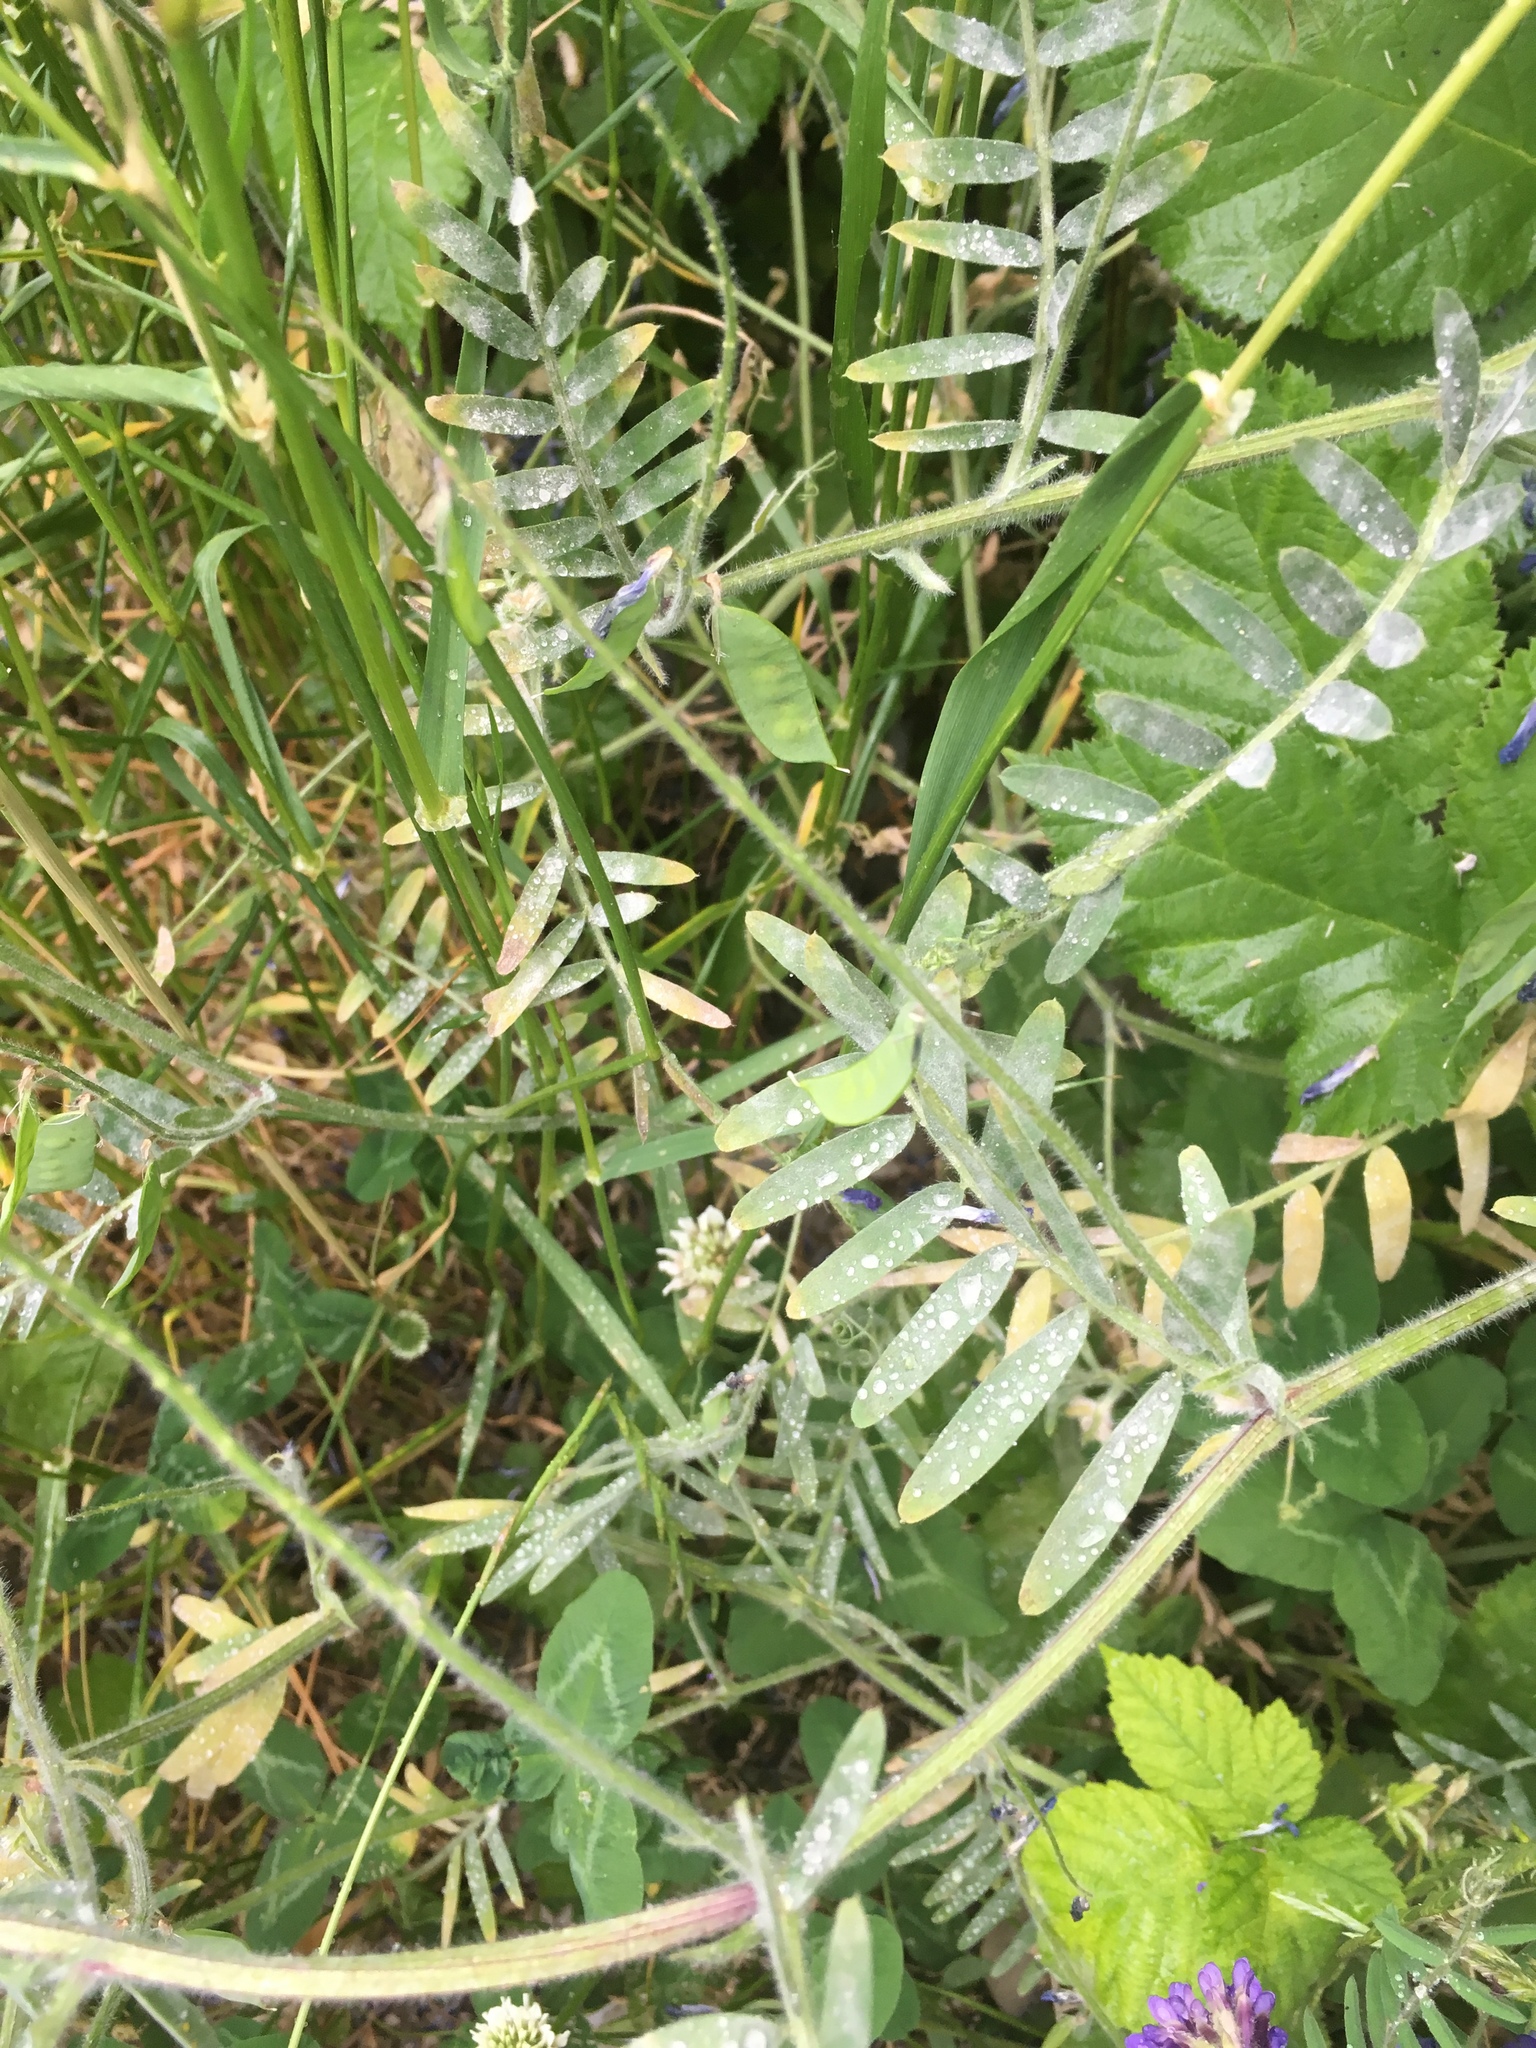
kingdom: Plantae
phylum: Tracheophyta
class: Magnoliopsida
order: Fabales
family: Fabaceae
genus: Vicia
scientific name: Vicia villosa
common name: Fodder vetch
